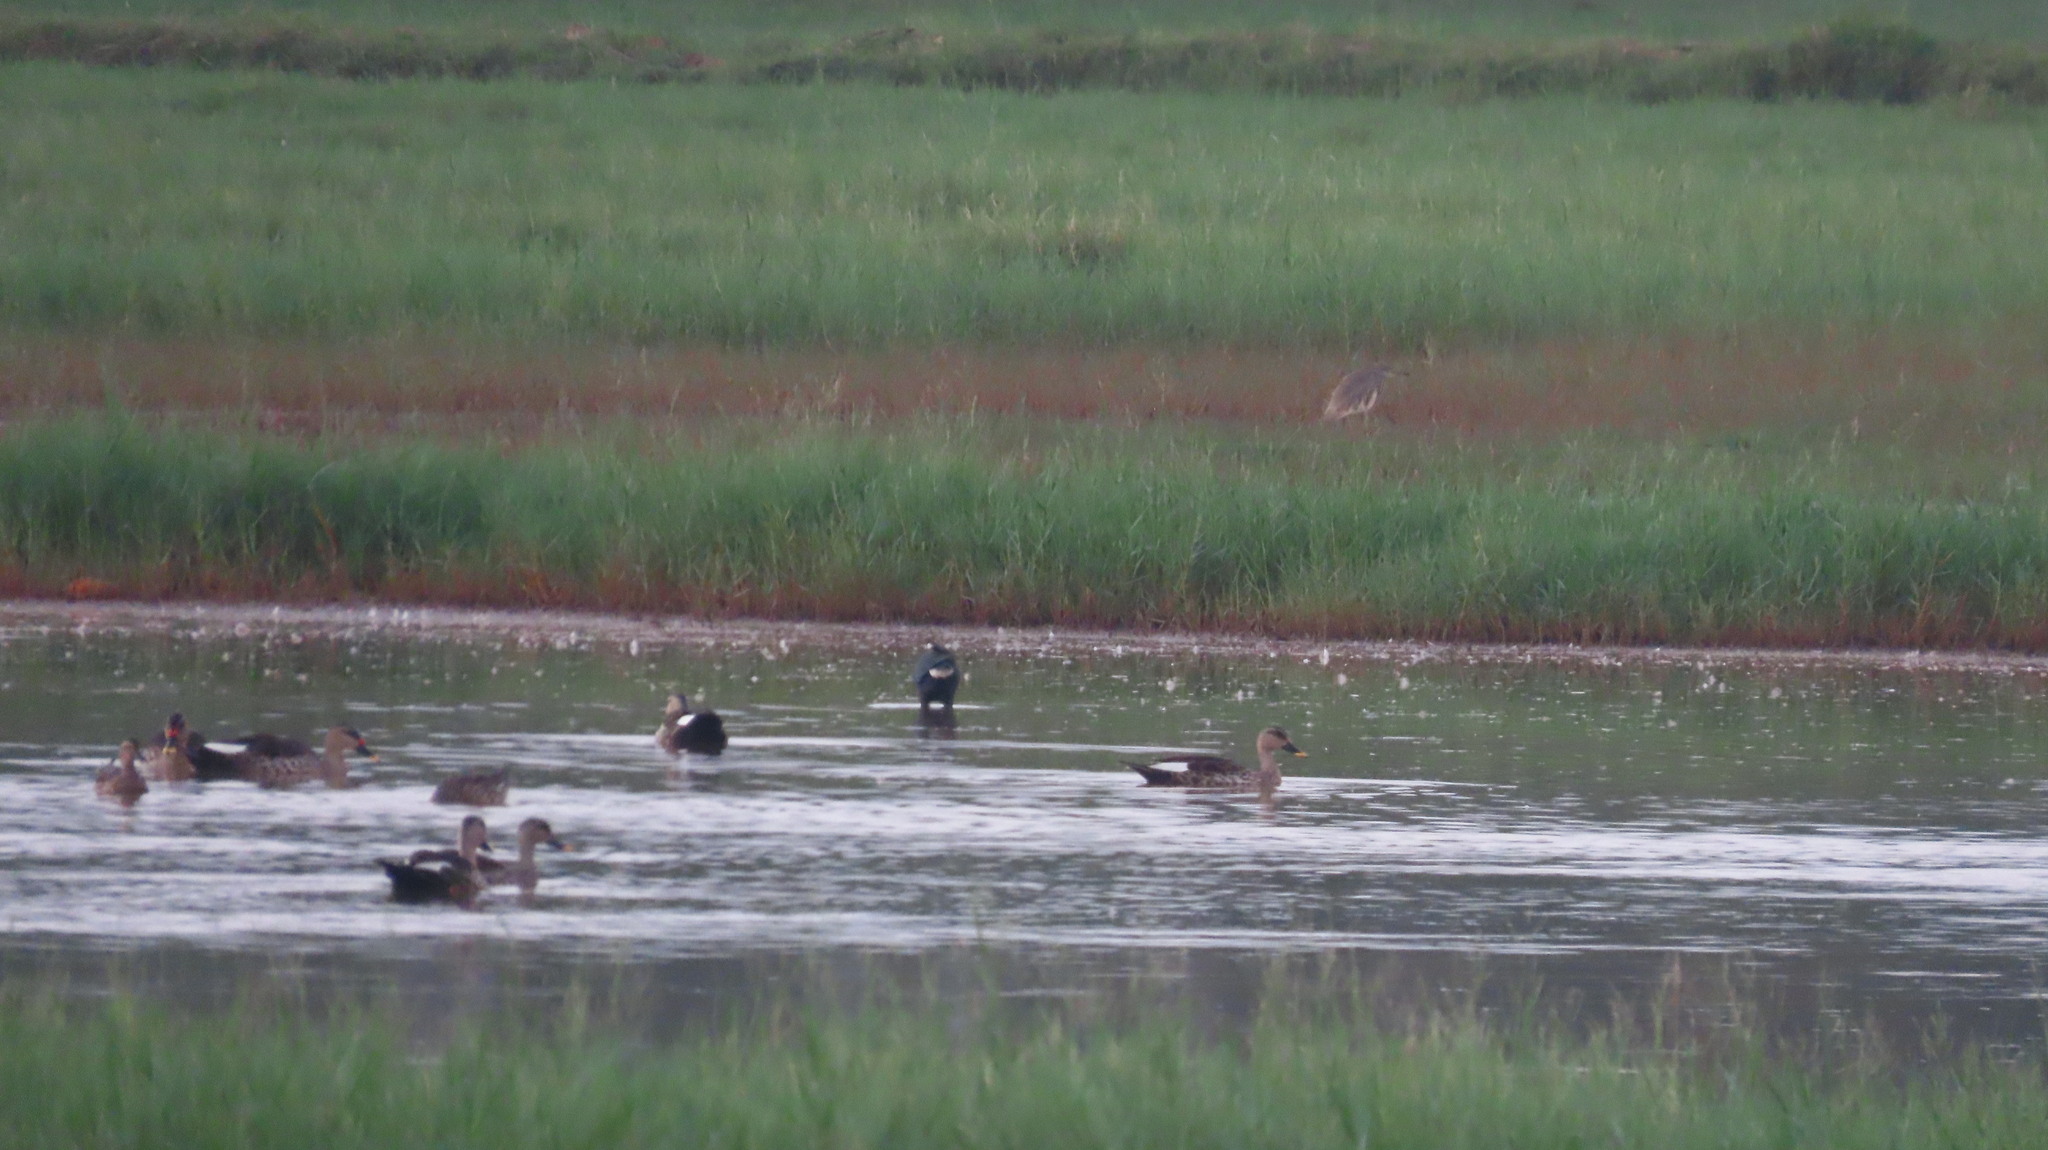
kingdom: Animalia
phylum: Chordata
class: Aves
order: Anseriformes
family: Anatidae
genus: Anas
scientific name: Anas poecilorhyncha
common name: Indian spot-billed duck
